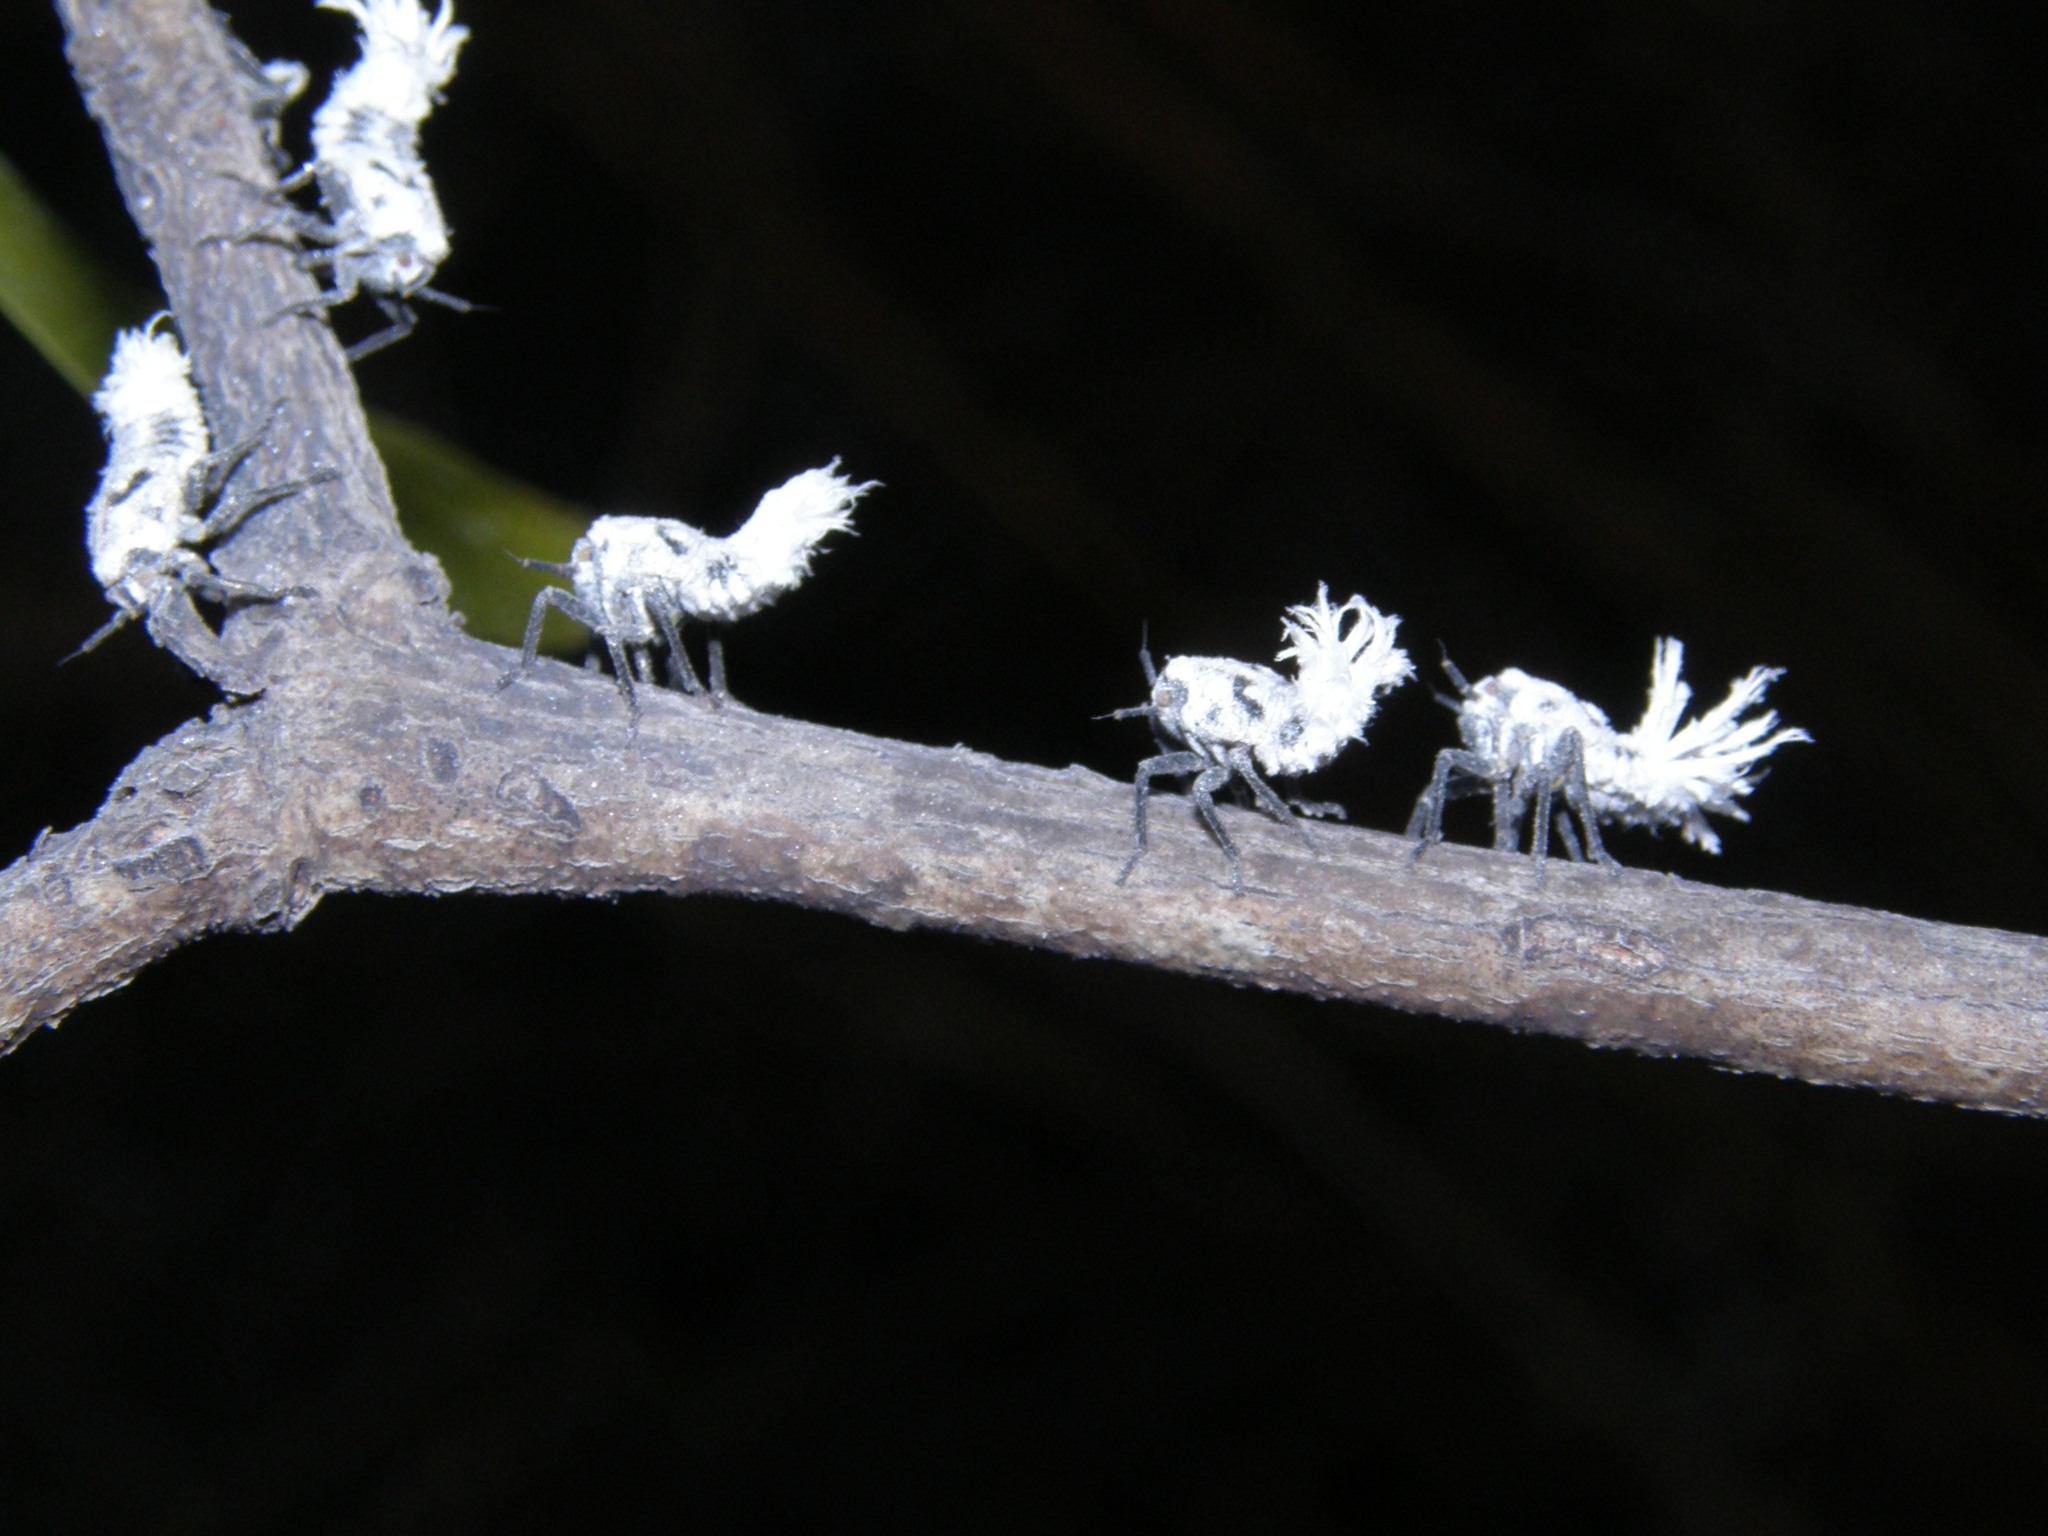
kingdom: Animalia
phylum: Arthropoda
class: Insecta
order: Hemiptera
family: Flatidae
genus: Flatida
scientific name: Flatida rosea
